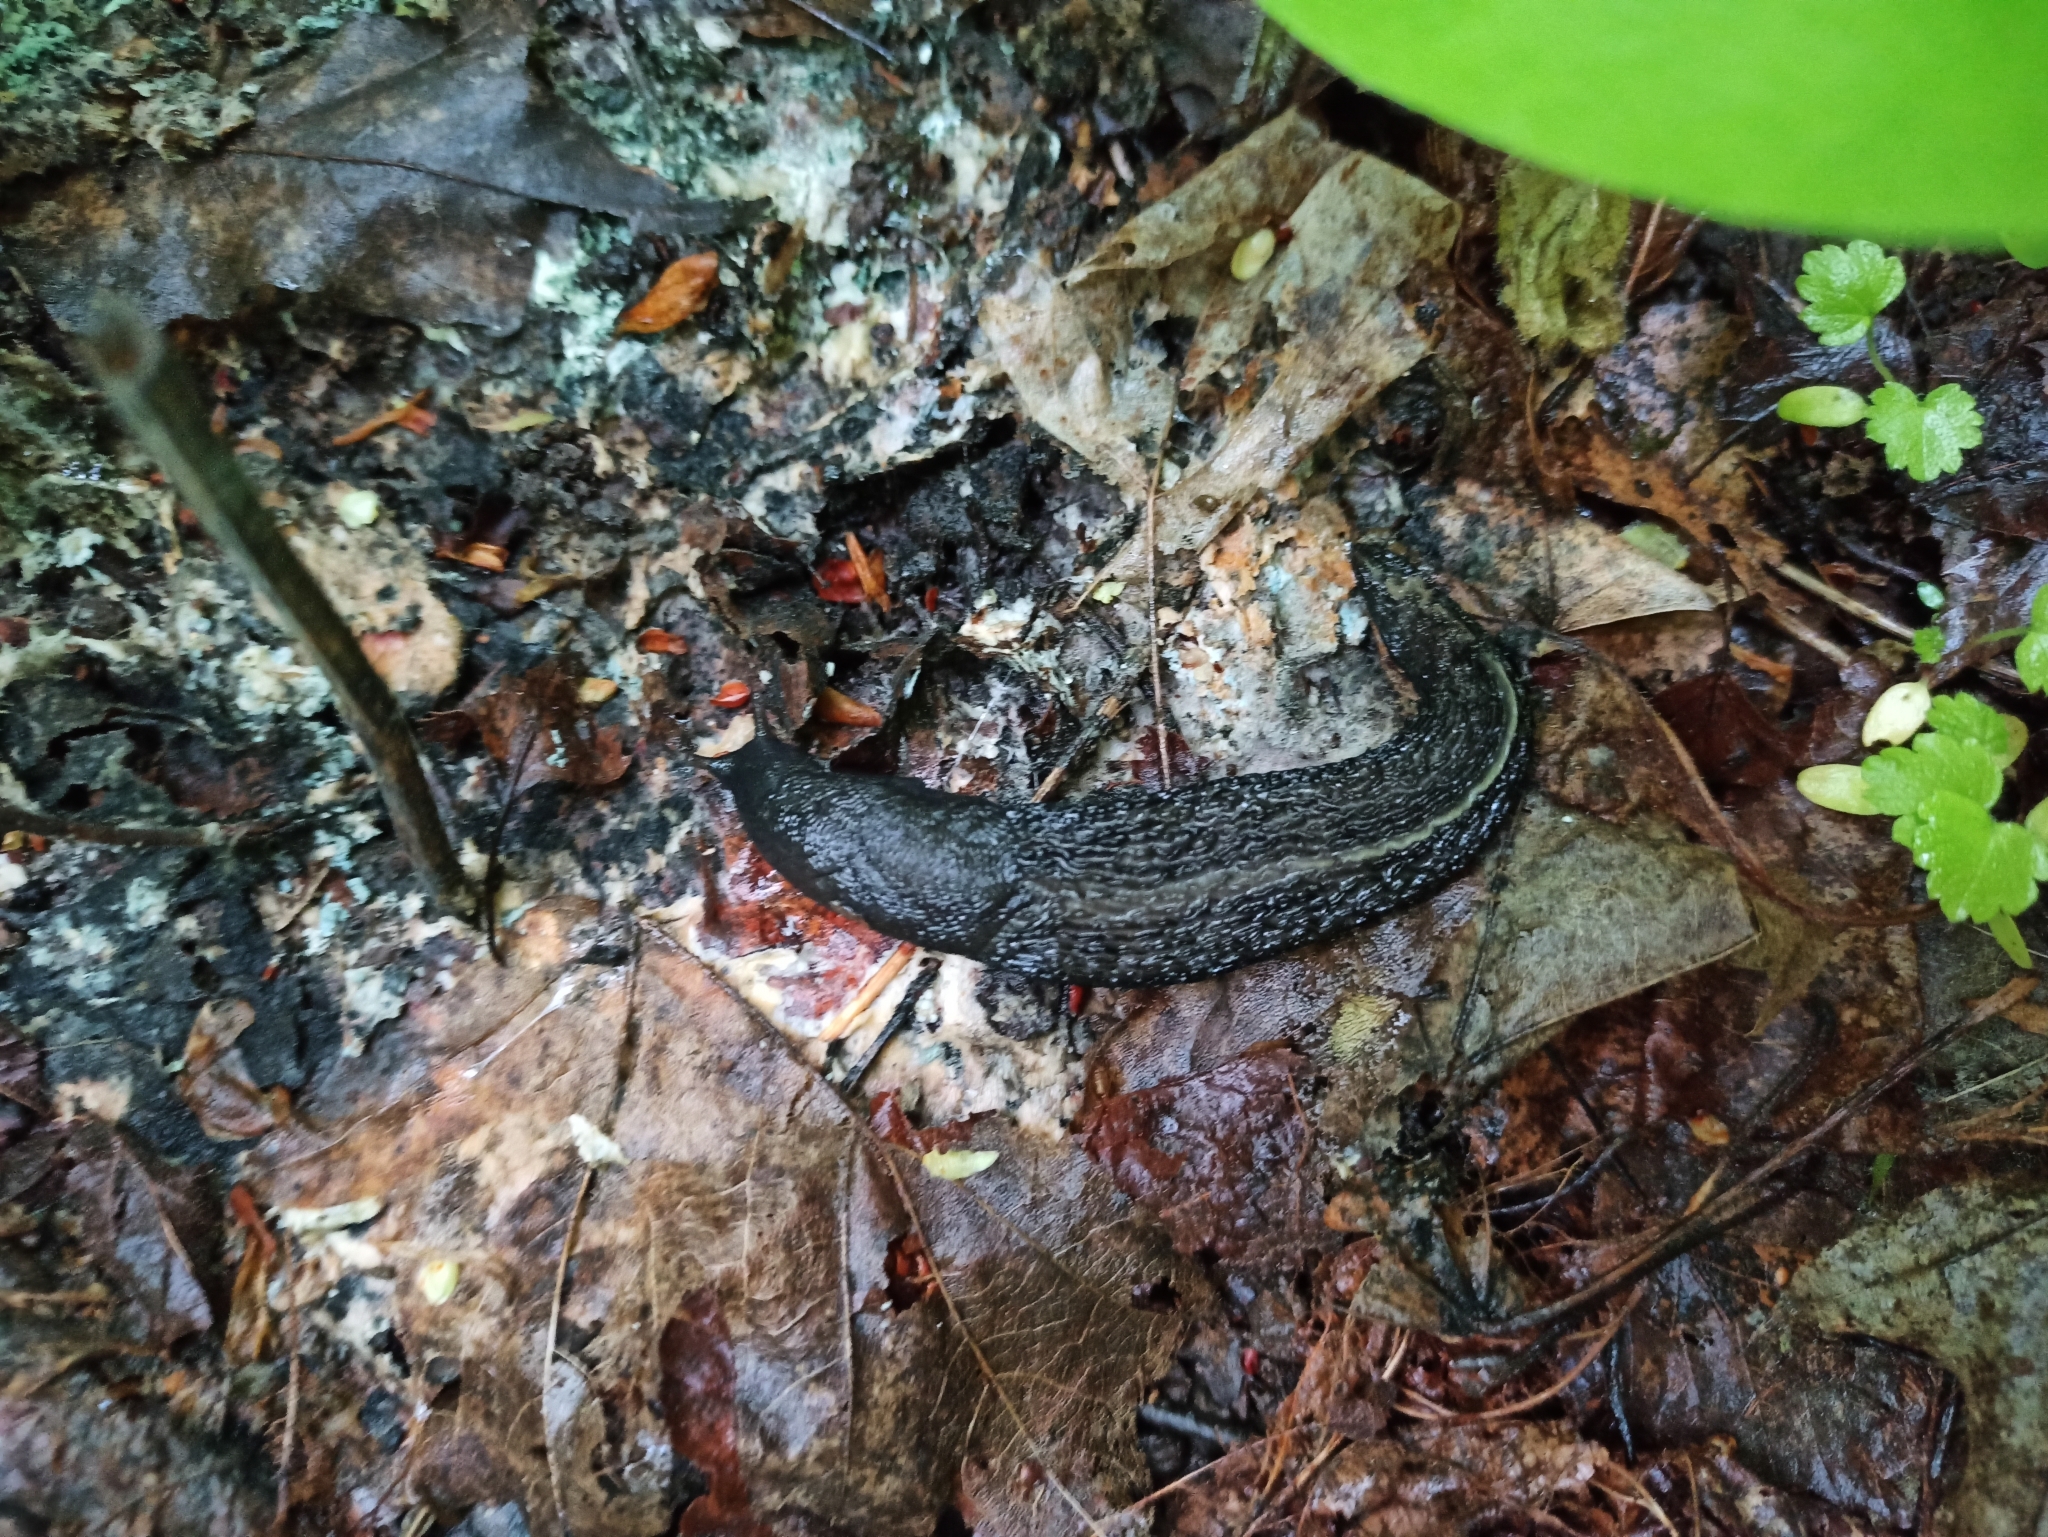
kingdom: Animalia
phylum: Mollusca
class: Gastropoda
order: Stylommatophora
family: Limacidae
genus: Limax
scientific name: Limax cinereoniger
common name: Ash-black slug
